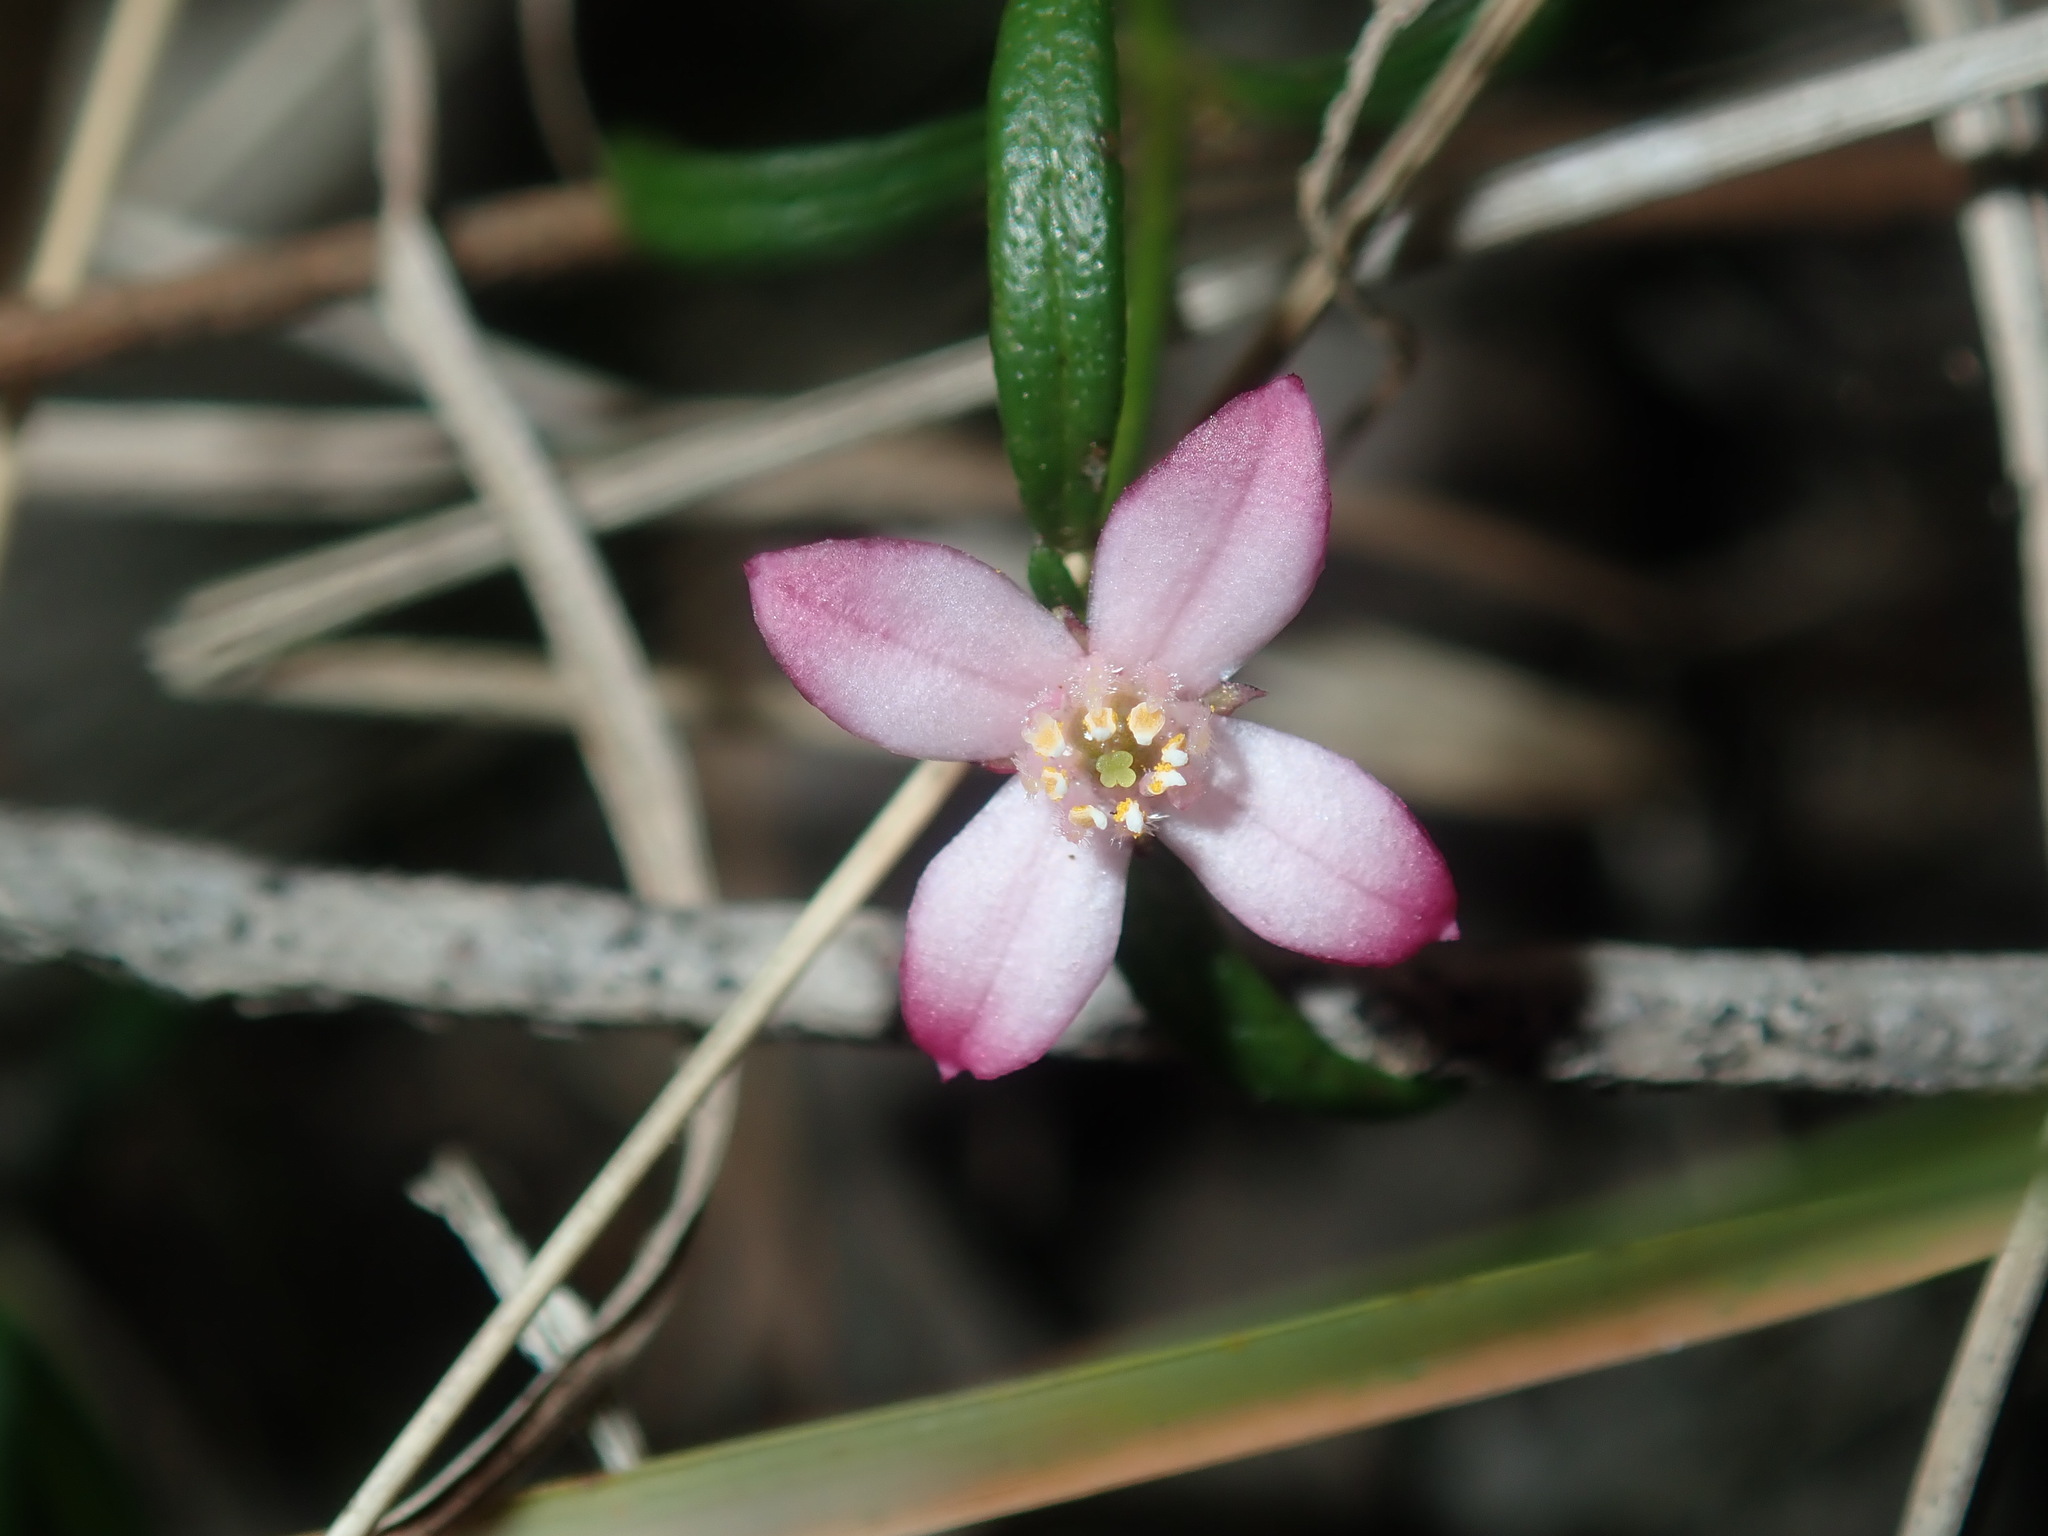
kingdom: Plantae
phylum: Tracheophyta
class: Magnoliopsida
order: Sapindales
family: Rutaceae
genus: Cyanothamnus
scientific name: Cyanothamnus polygalifolius
